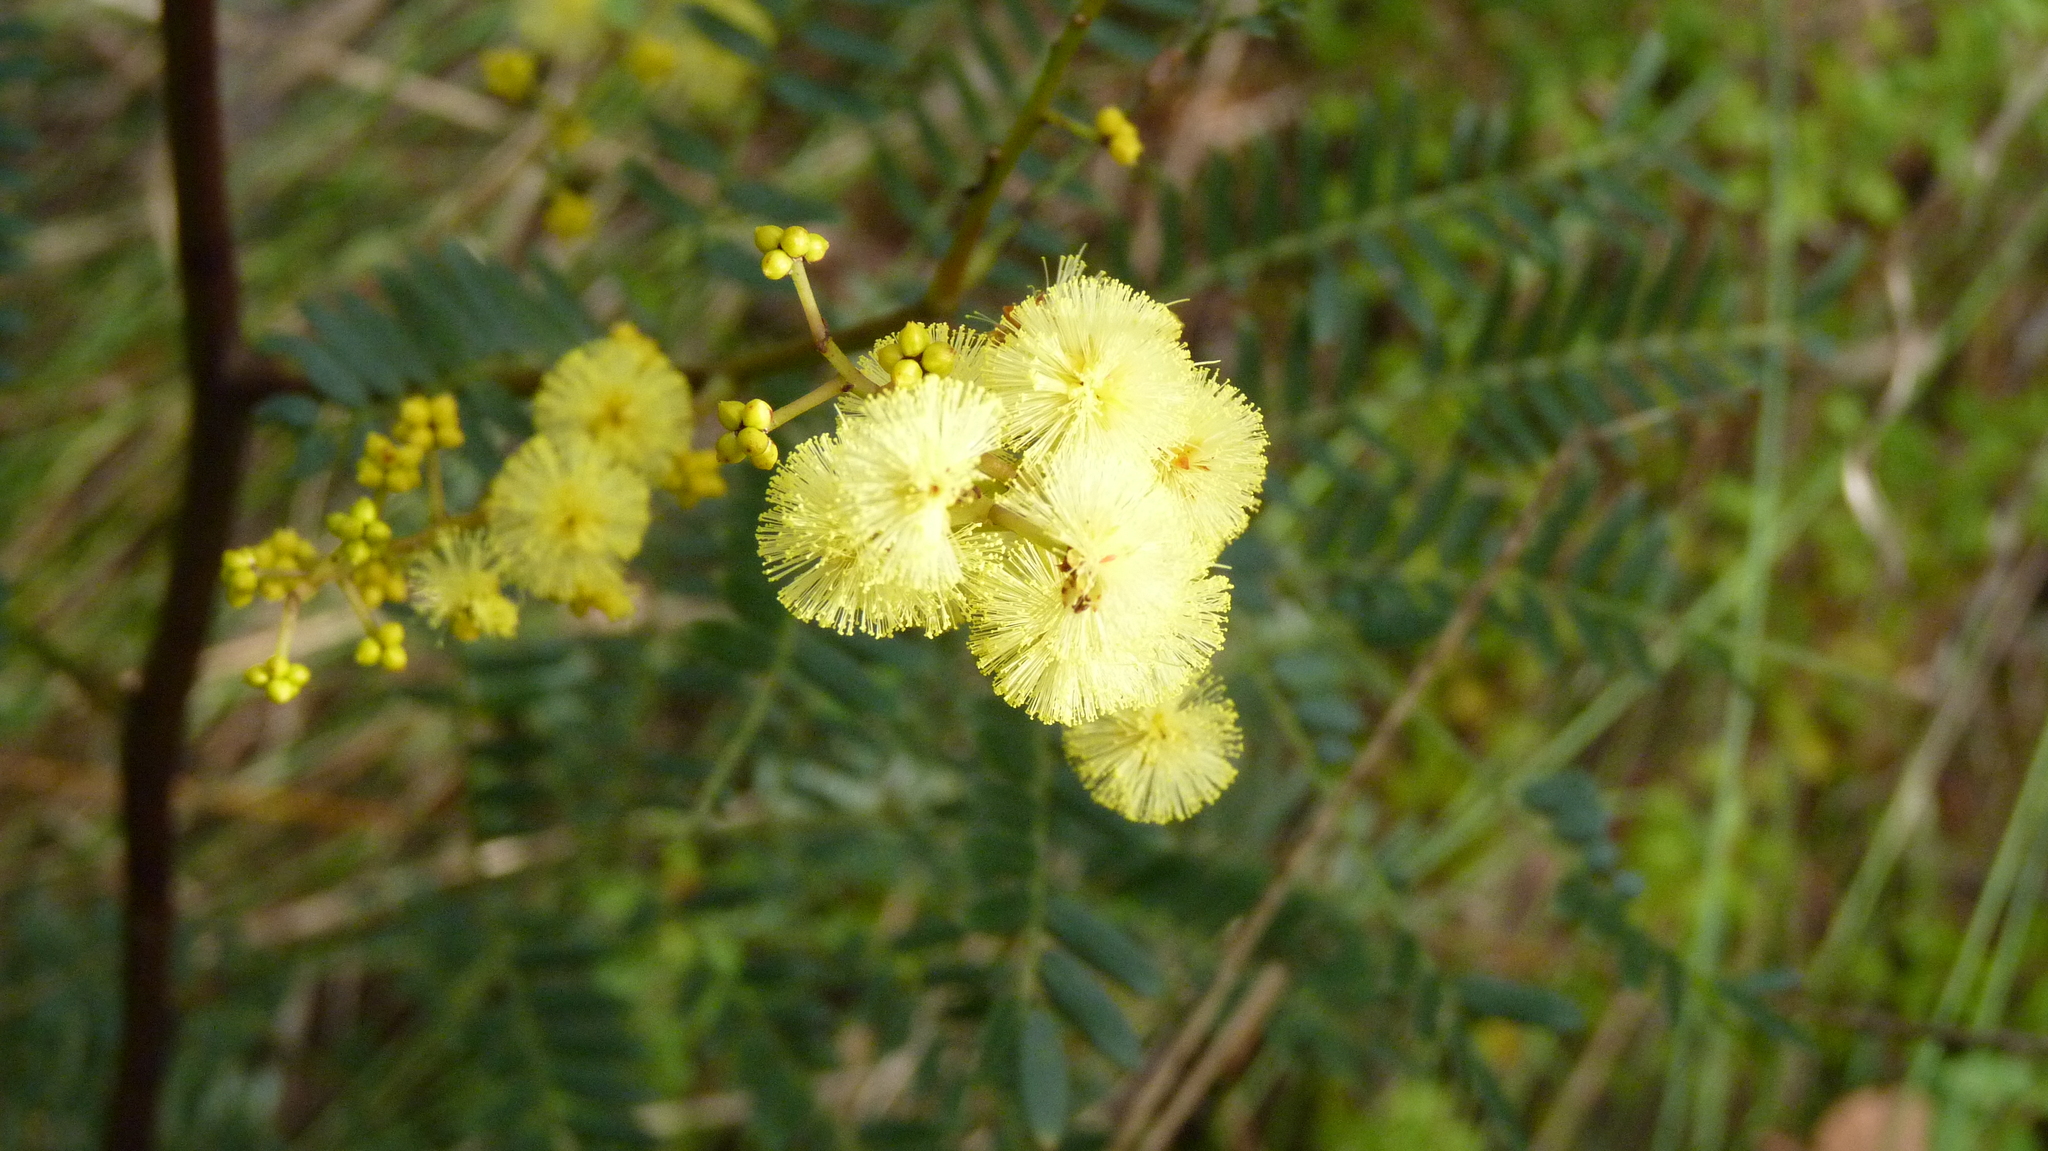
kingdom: Plantae
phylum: Tracheophyta
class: Magnoliopsida
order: Fabales
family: Fabaceae
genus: Acacia
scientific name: Acacia terminalis
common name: Cedar wattle
